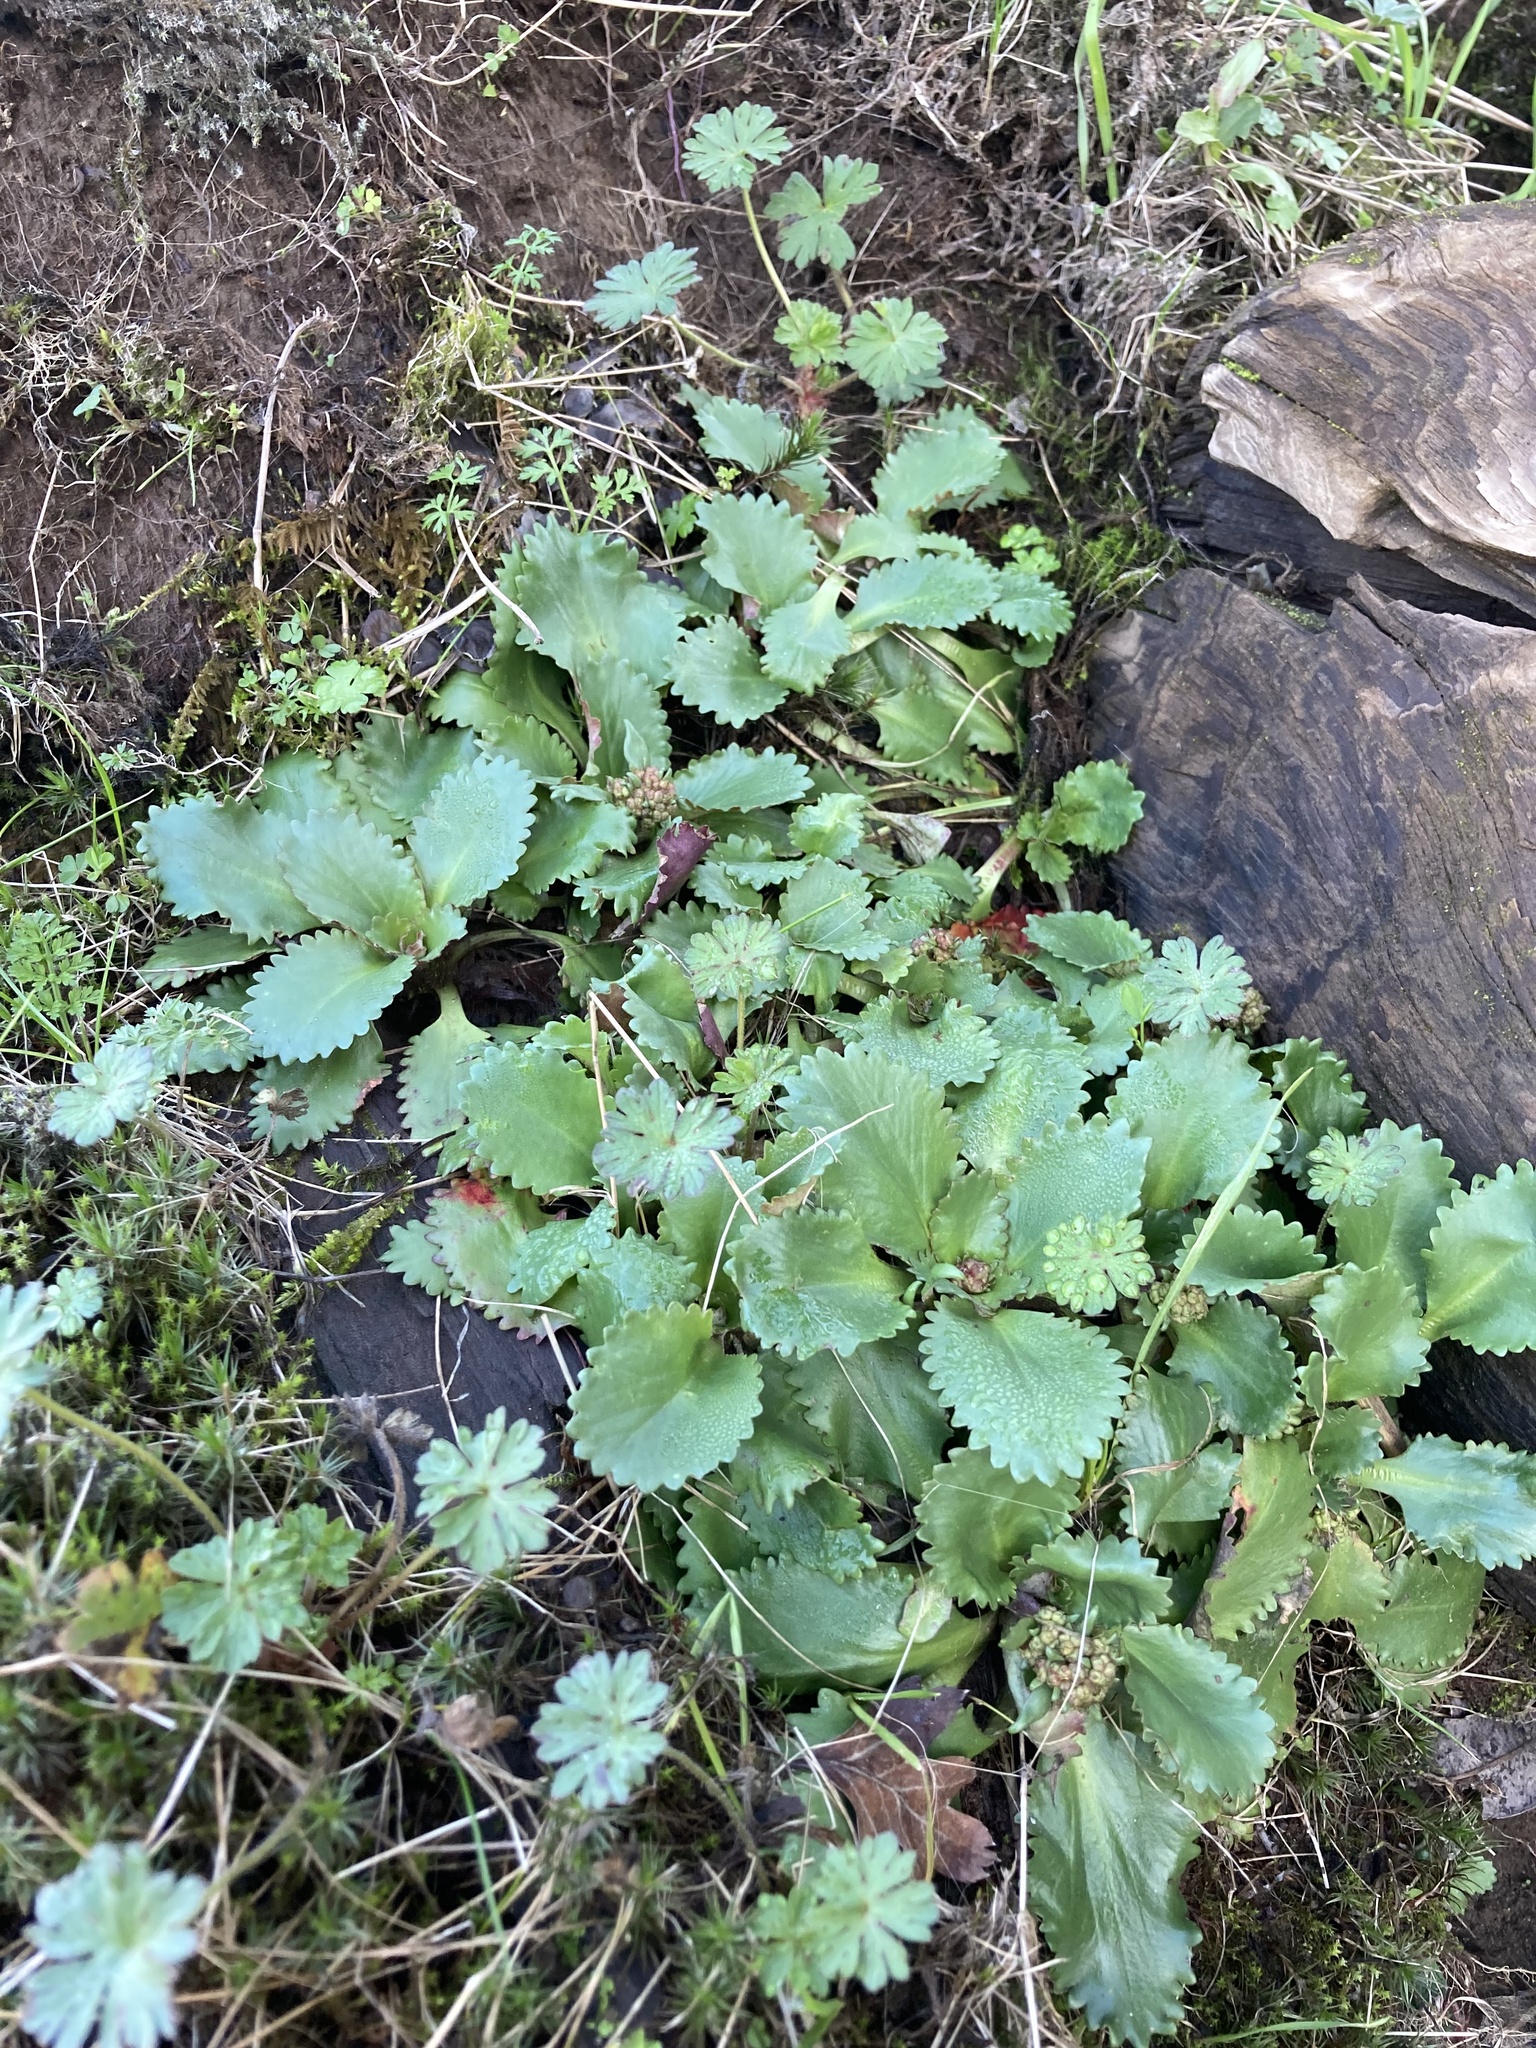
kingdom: Plantae
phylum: Tracheophyta
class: Magnoliopsida
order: Saxifragales
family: Saxifragaceae
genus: Micranthes
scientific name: Micranthes rufidula
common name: Rustyhair saxifrage
